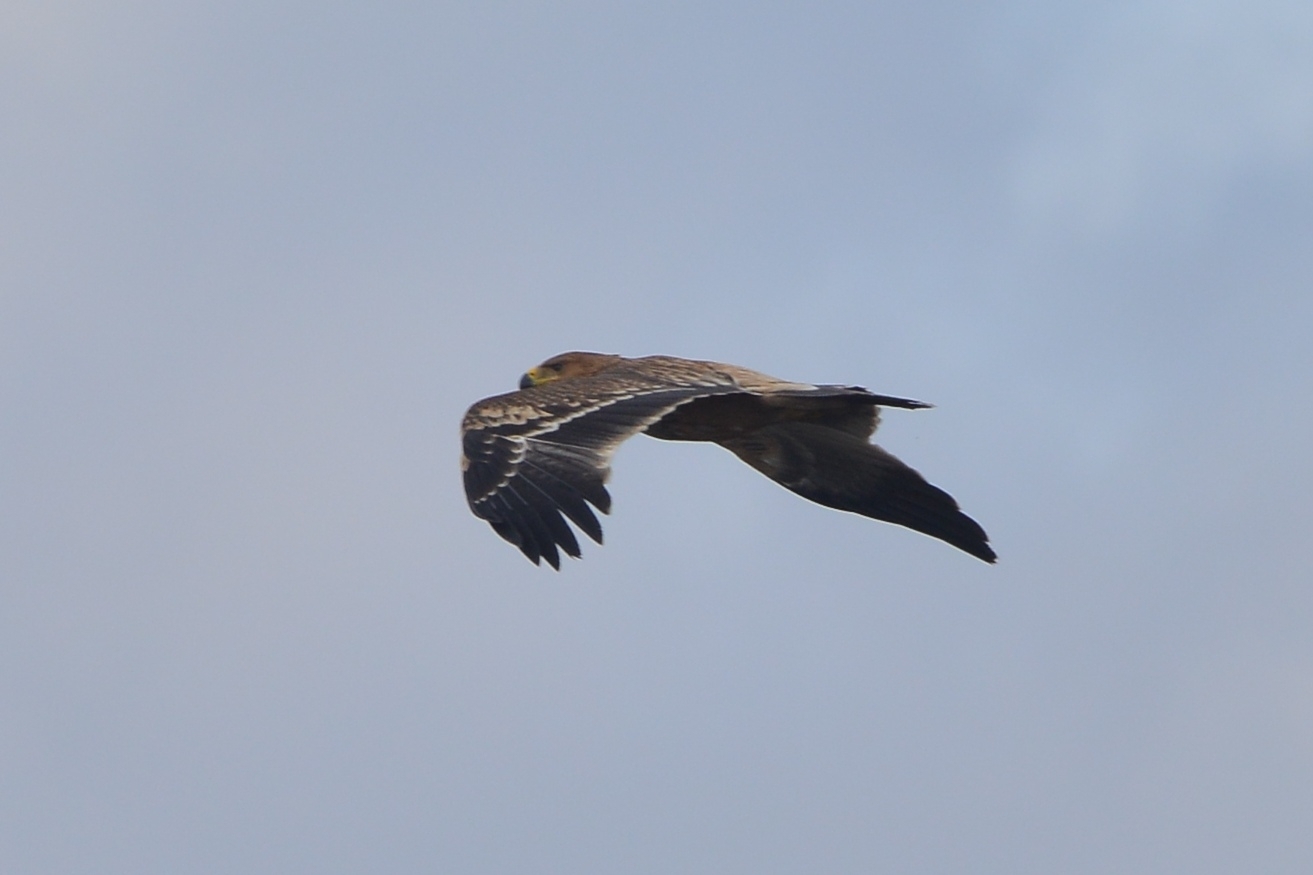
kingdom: Animalia
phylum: Chordata
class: Aves
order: Accipitriformes
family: Accipitridae
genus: Aquila
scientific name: Aquila heliaca
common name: Eastern imperial eagle
